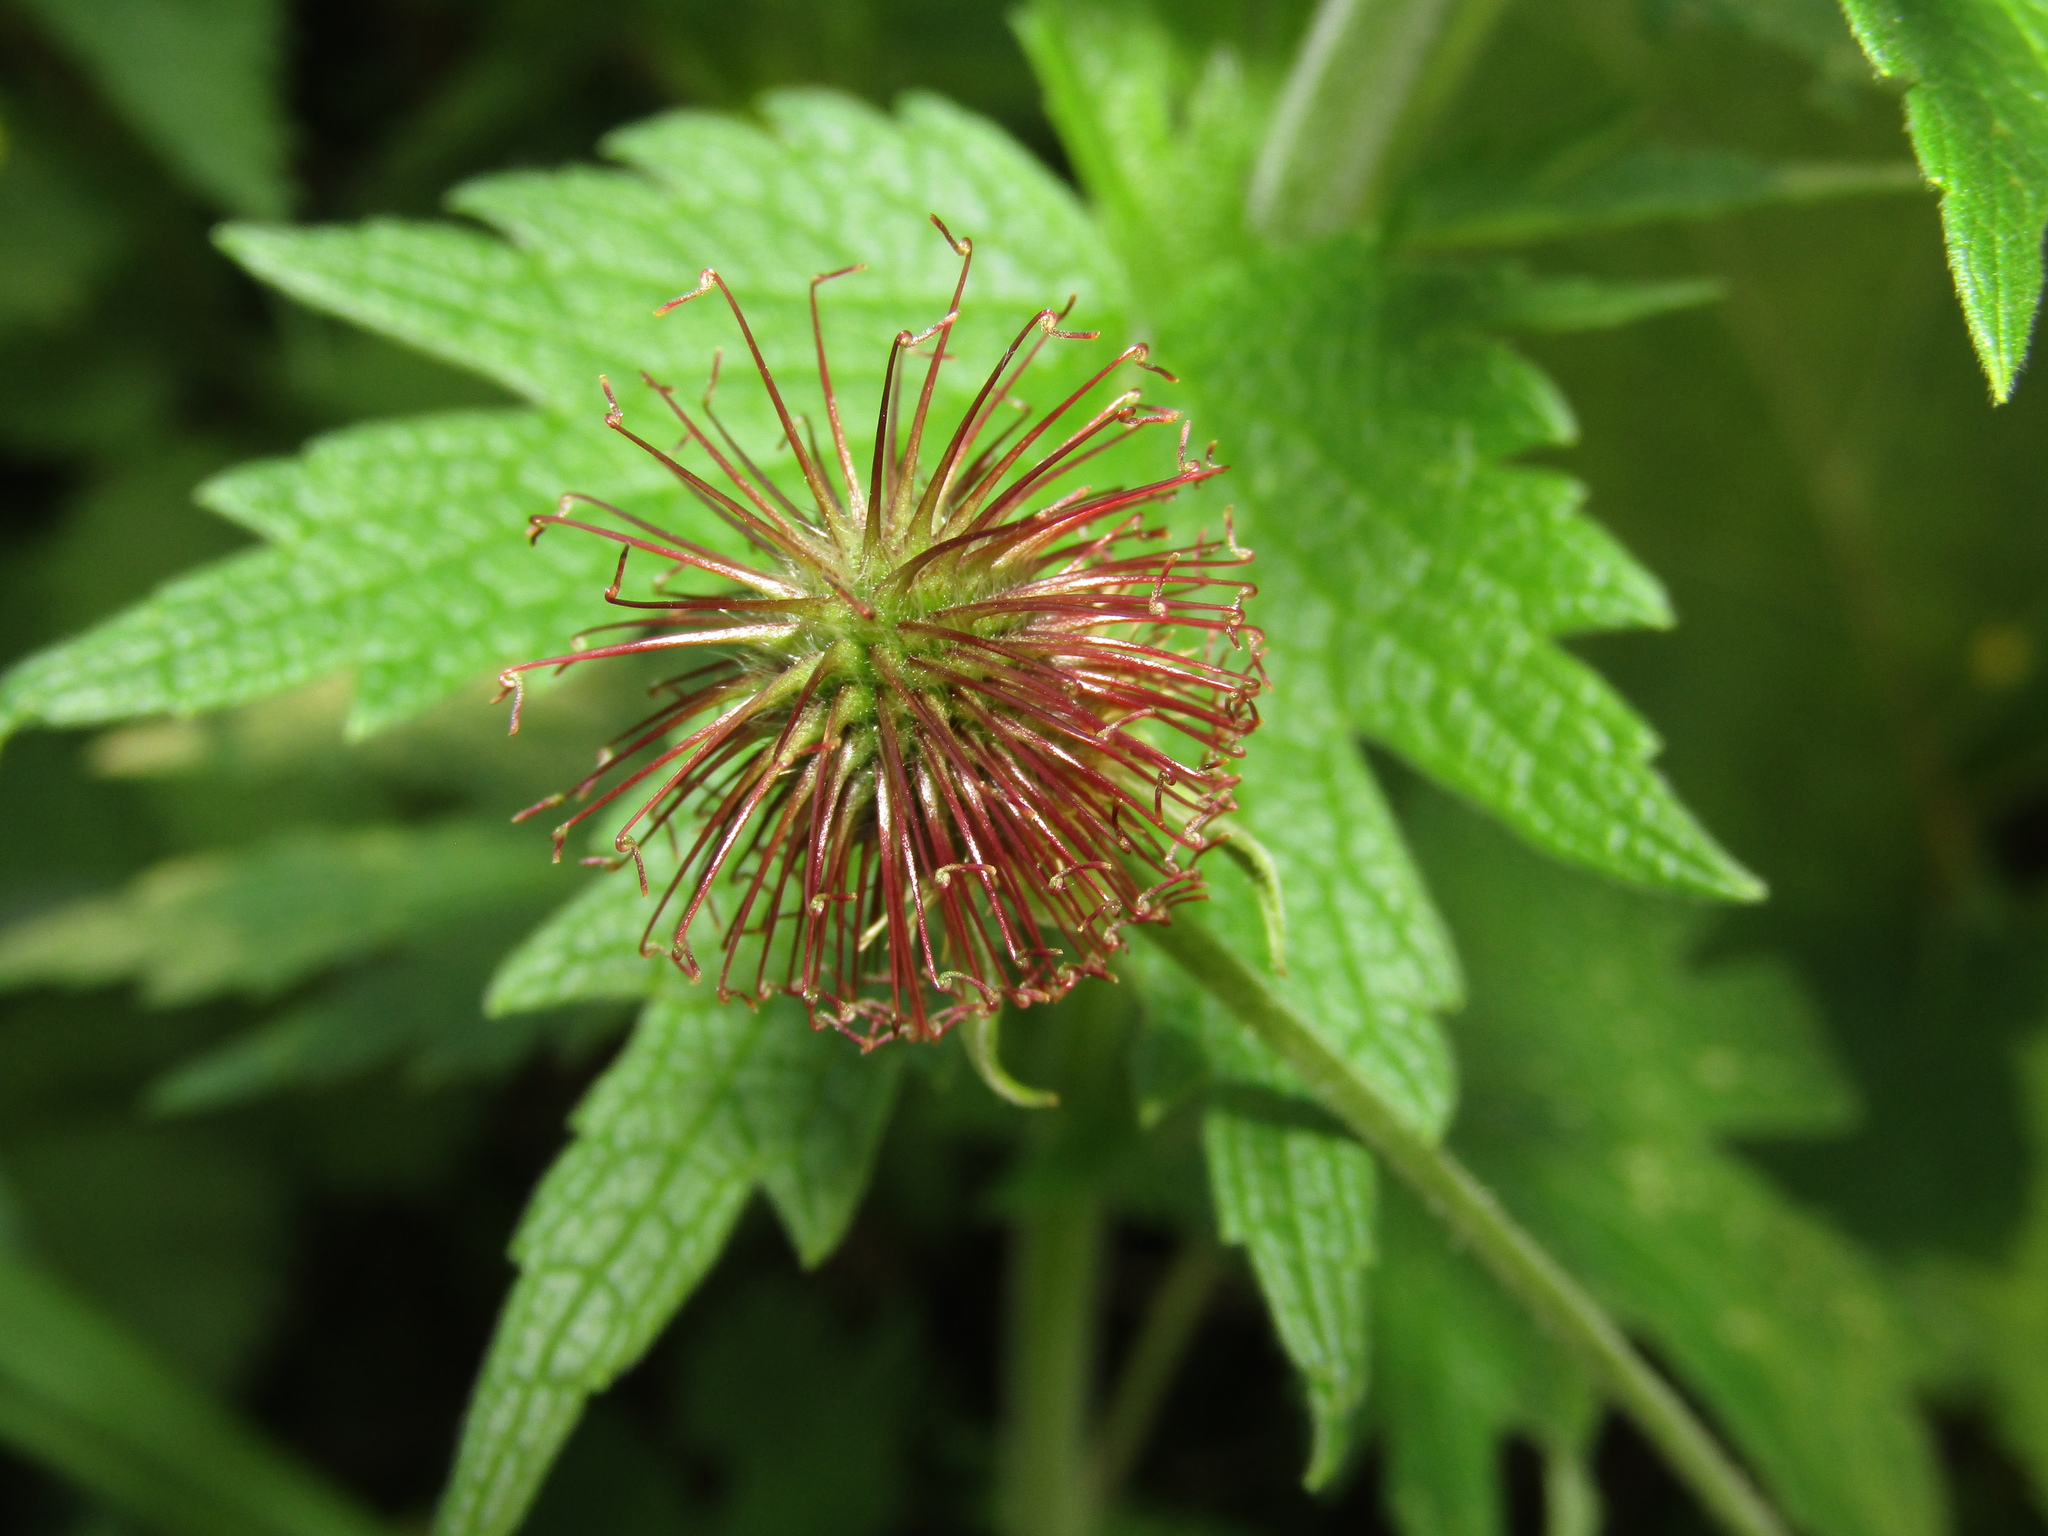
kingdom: Plantae
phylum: Tracheophyta
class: Magnoliopsida
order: Rosales
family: Rosaceae
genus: Geum
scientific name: Geum urbanum
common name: Wood avens
